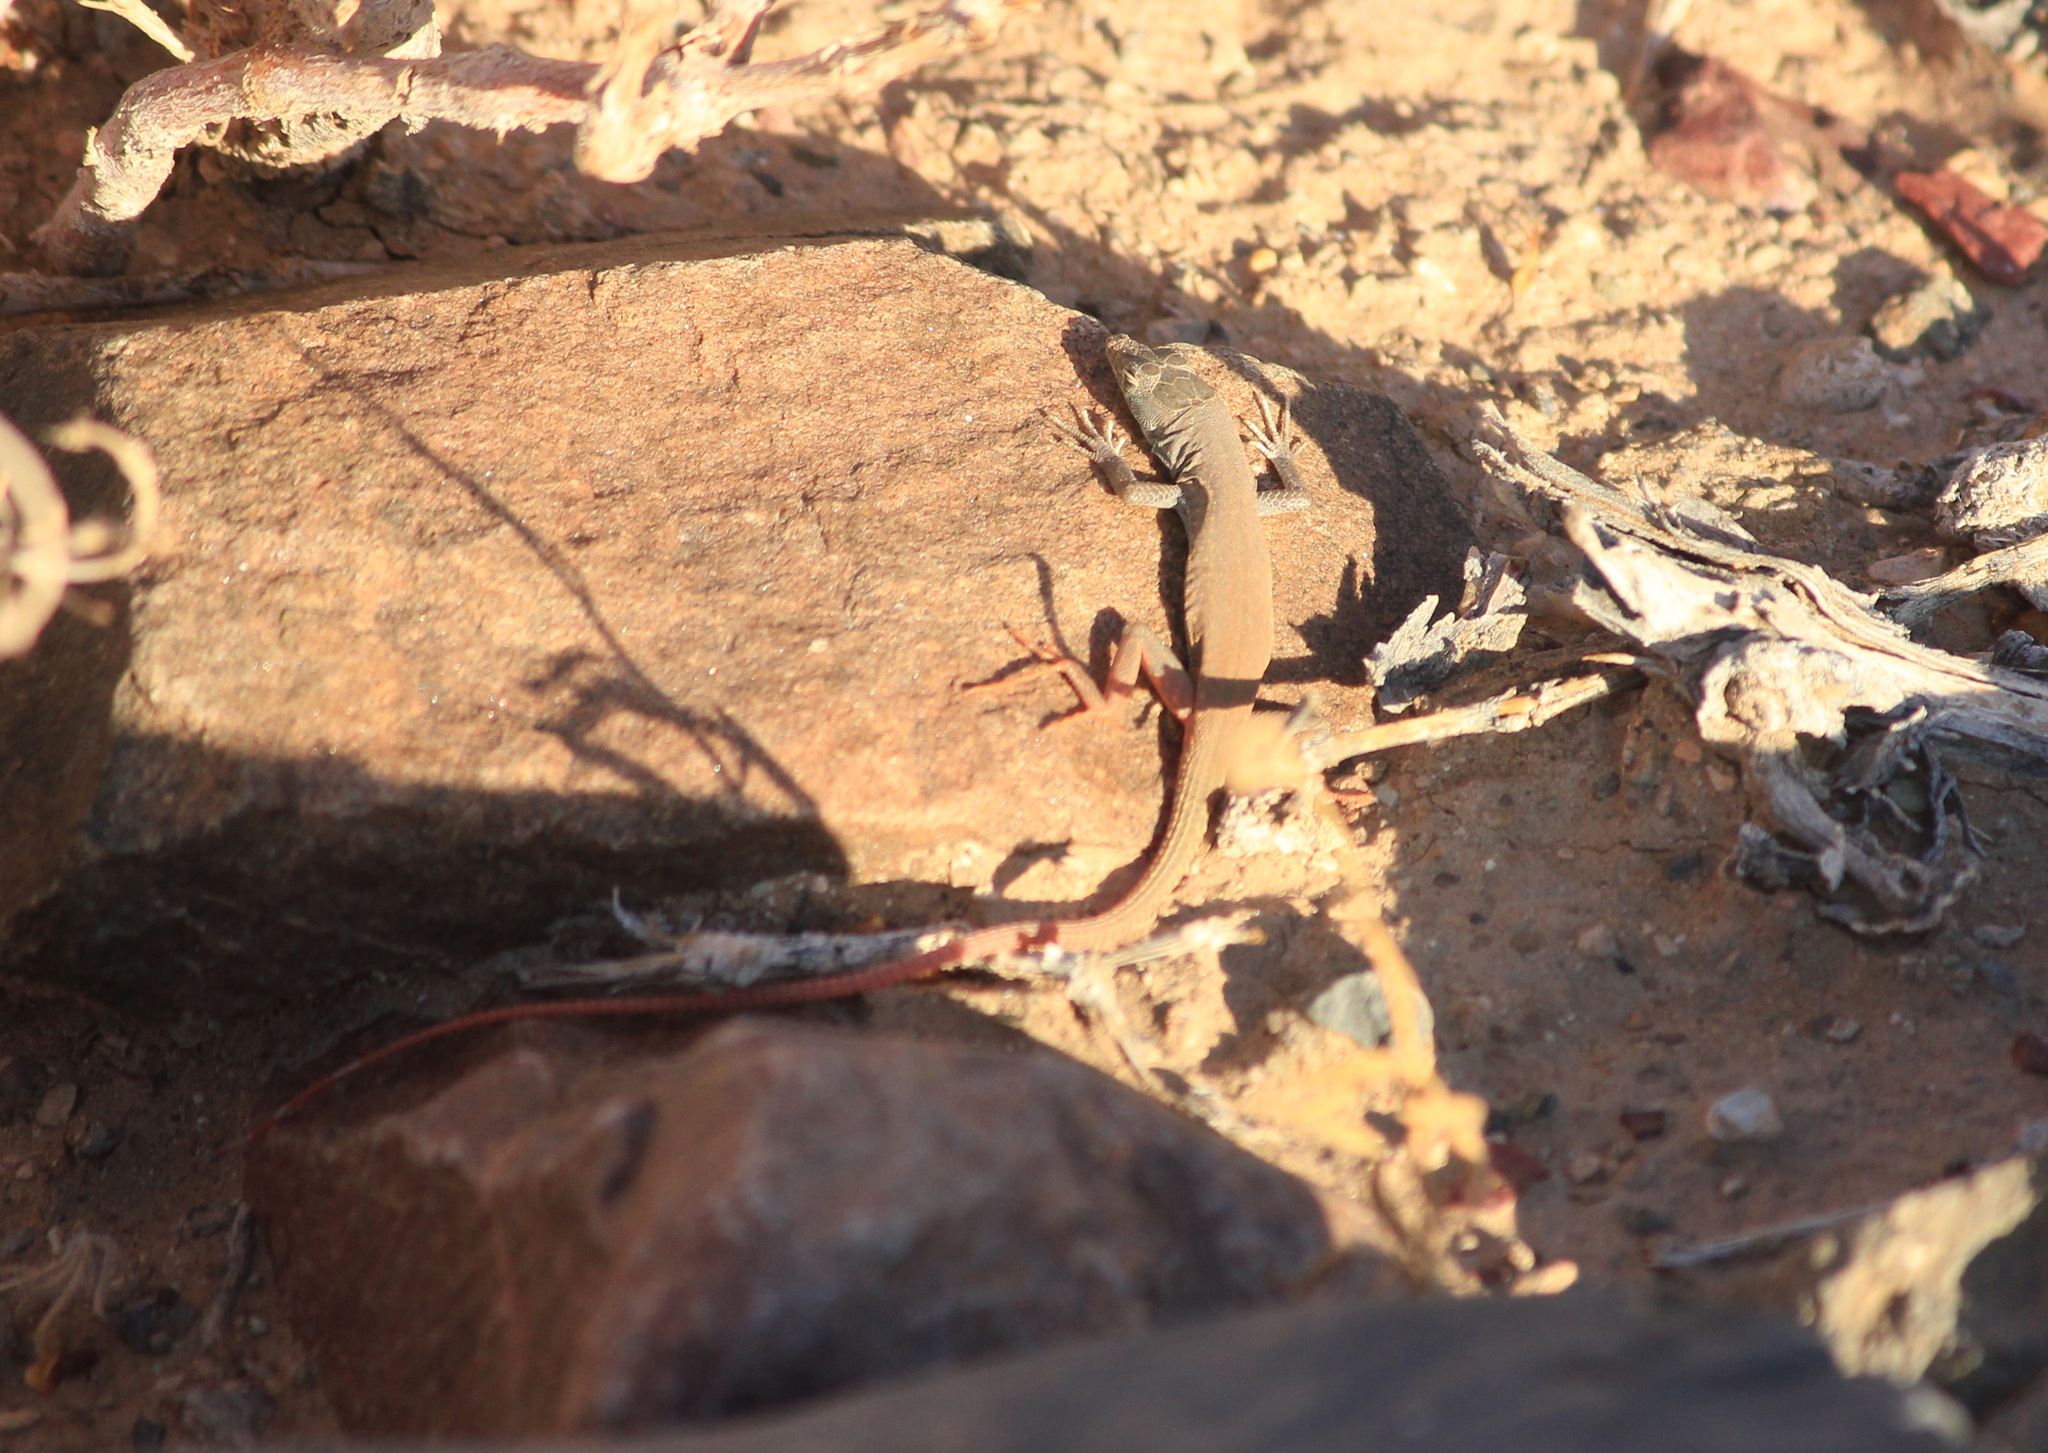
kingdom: Animalia
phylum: Chordata
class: Squamata
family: Lacertidae
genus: Pedioplanis
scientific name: Pedioplanis inornata
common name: Plain sand lizard
